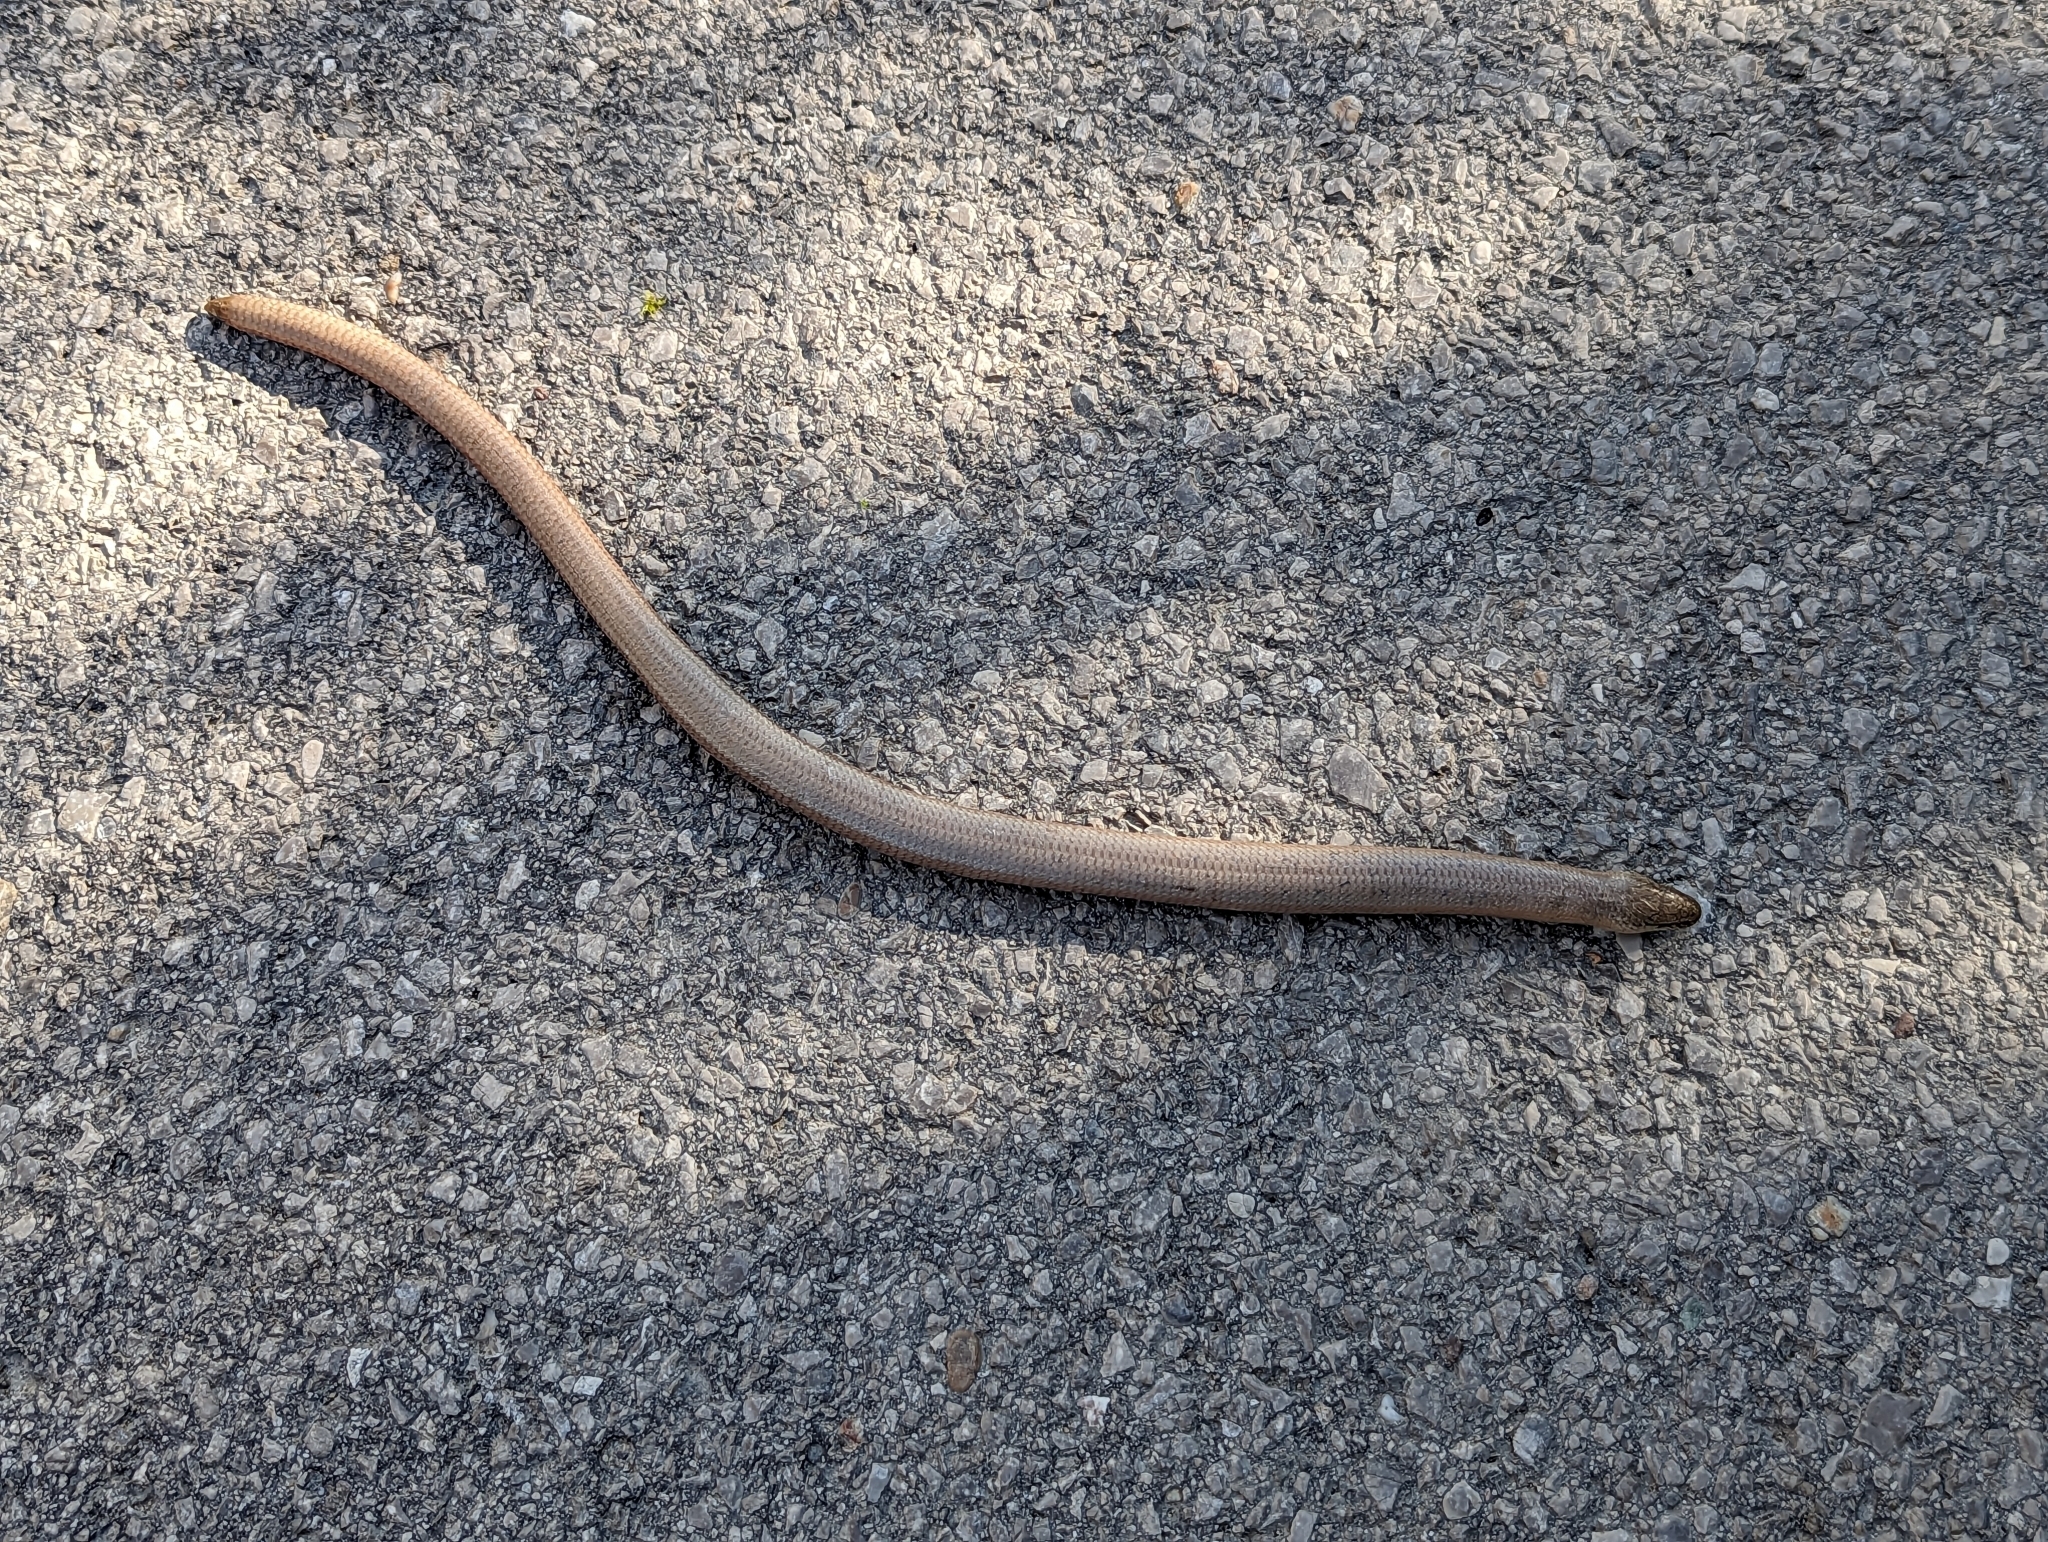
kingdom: Animalia
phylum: Chordata
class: Squamata
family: Anguidae
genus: Anguis
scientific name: Anguis fragilis
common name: Slow worm
